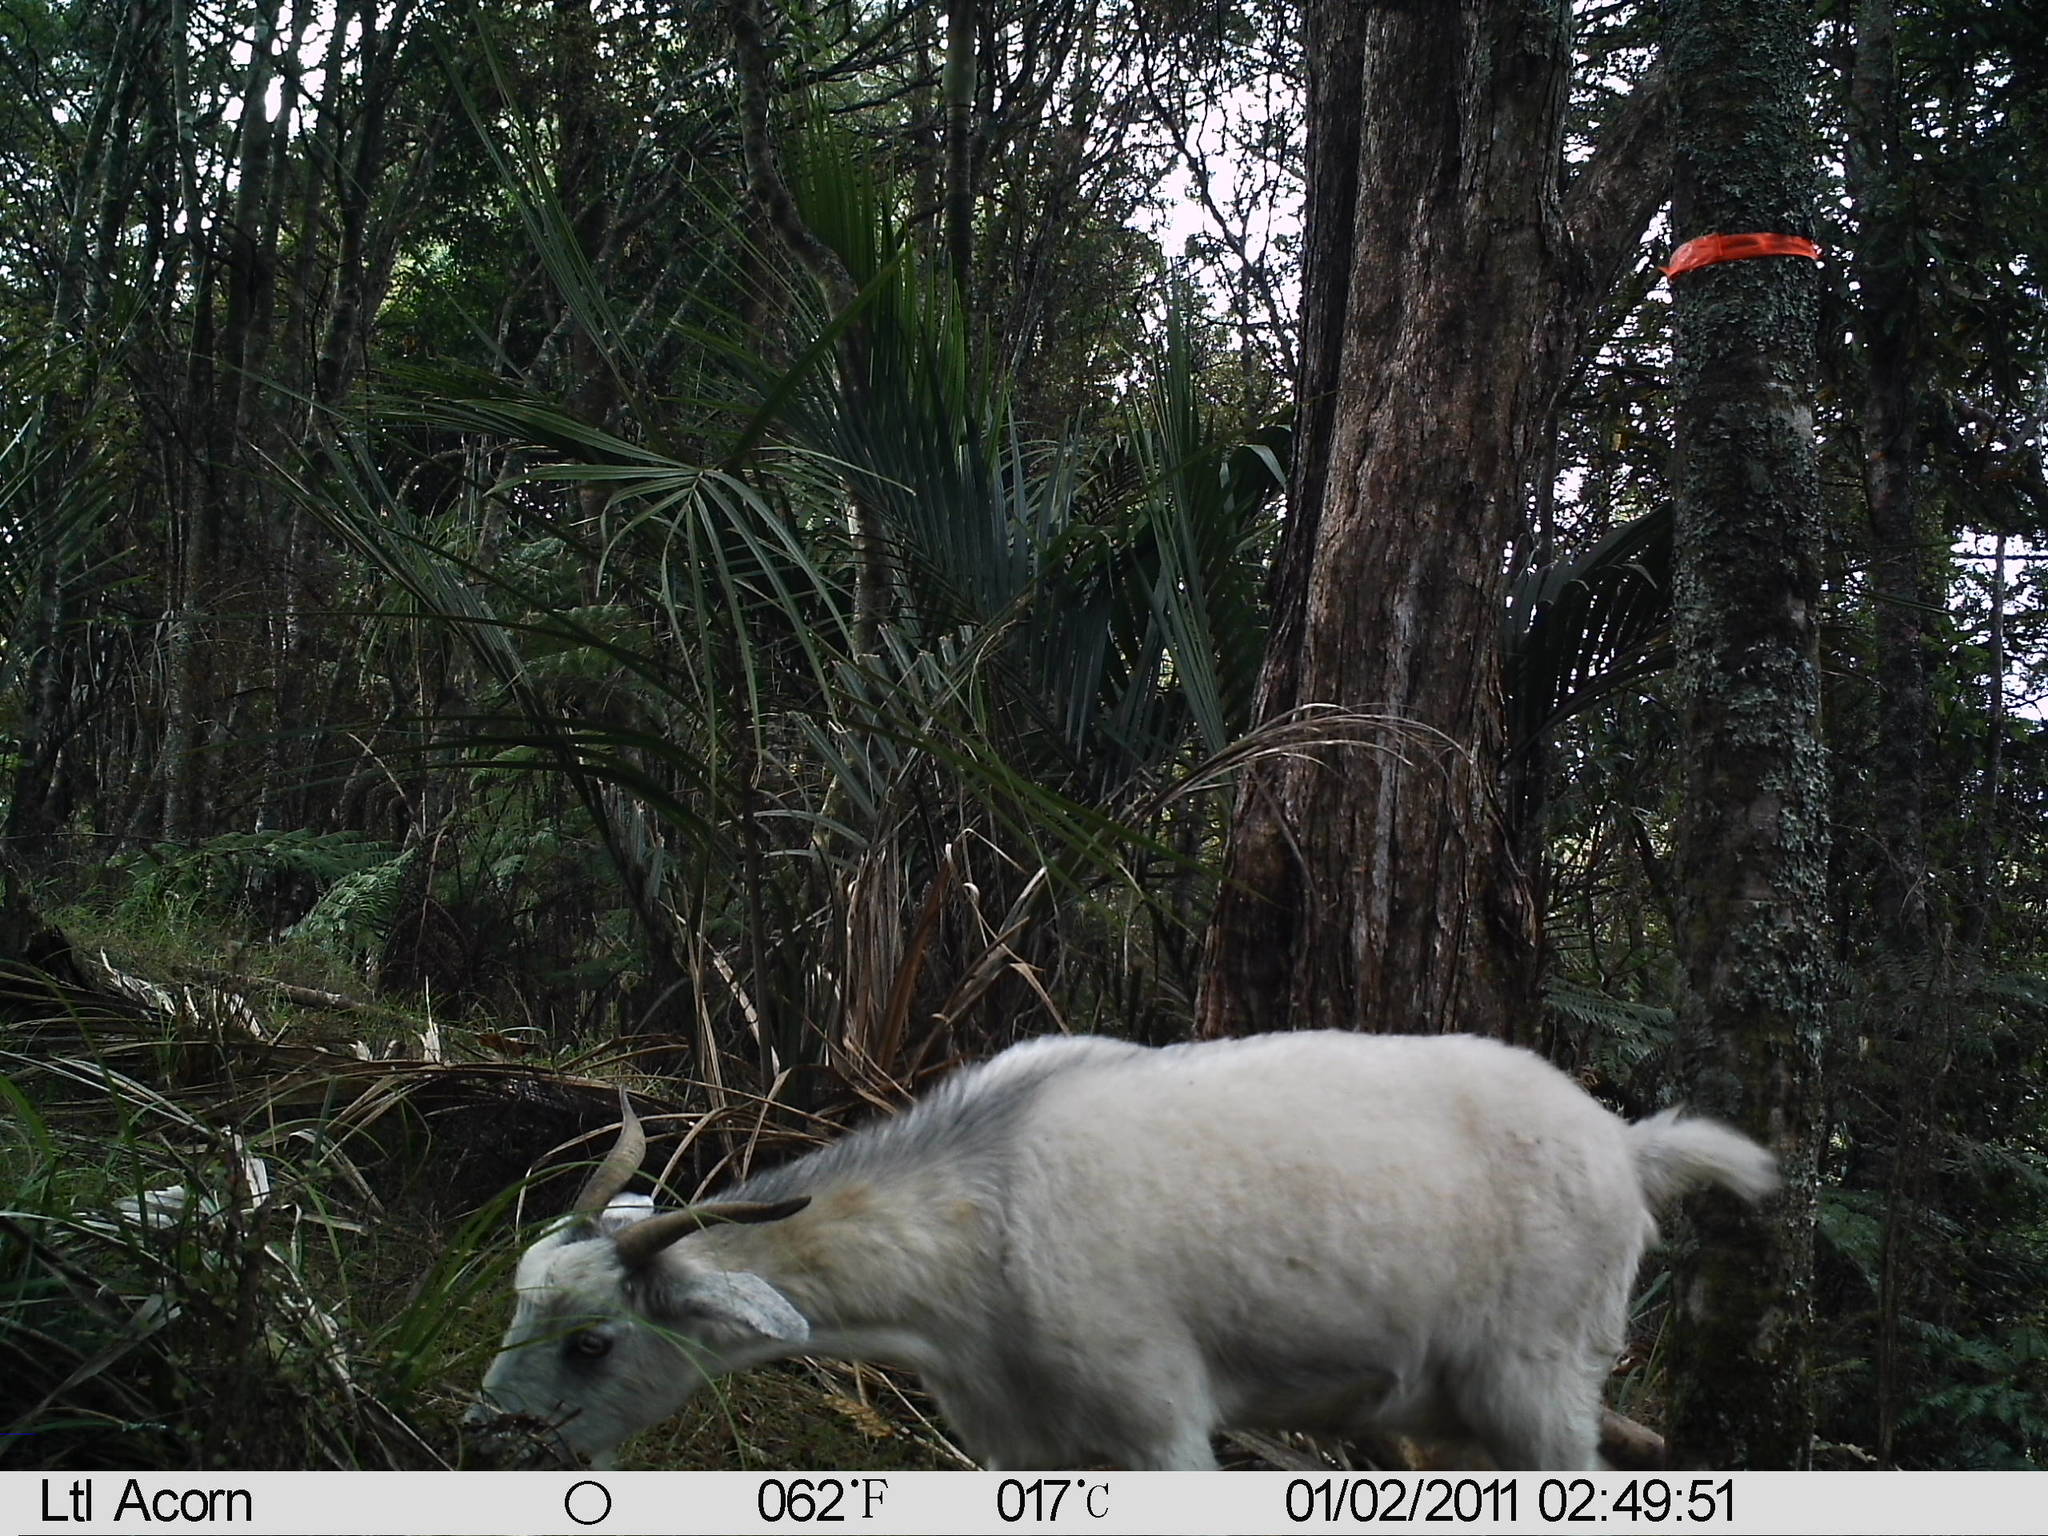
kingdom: Animalia
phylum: Chordata
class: Mammalia
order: Artiodactyla
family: Bovidae
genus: Capra
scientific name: Capra hircus
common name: Domestic goat
